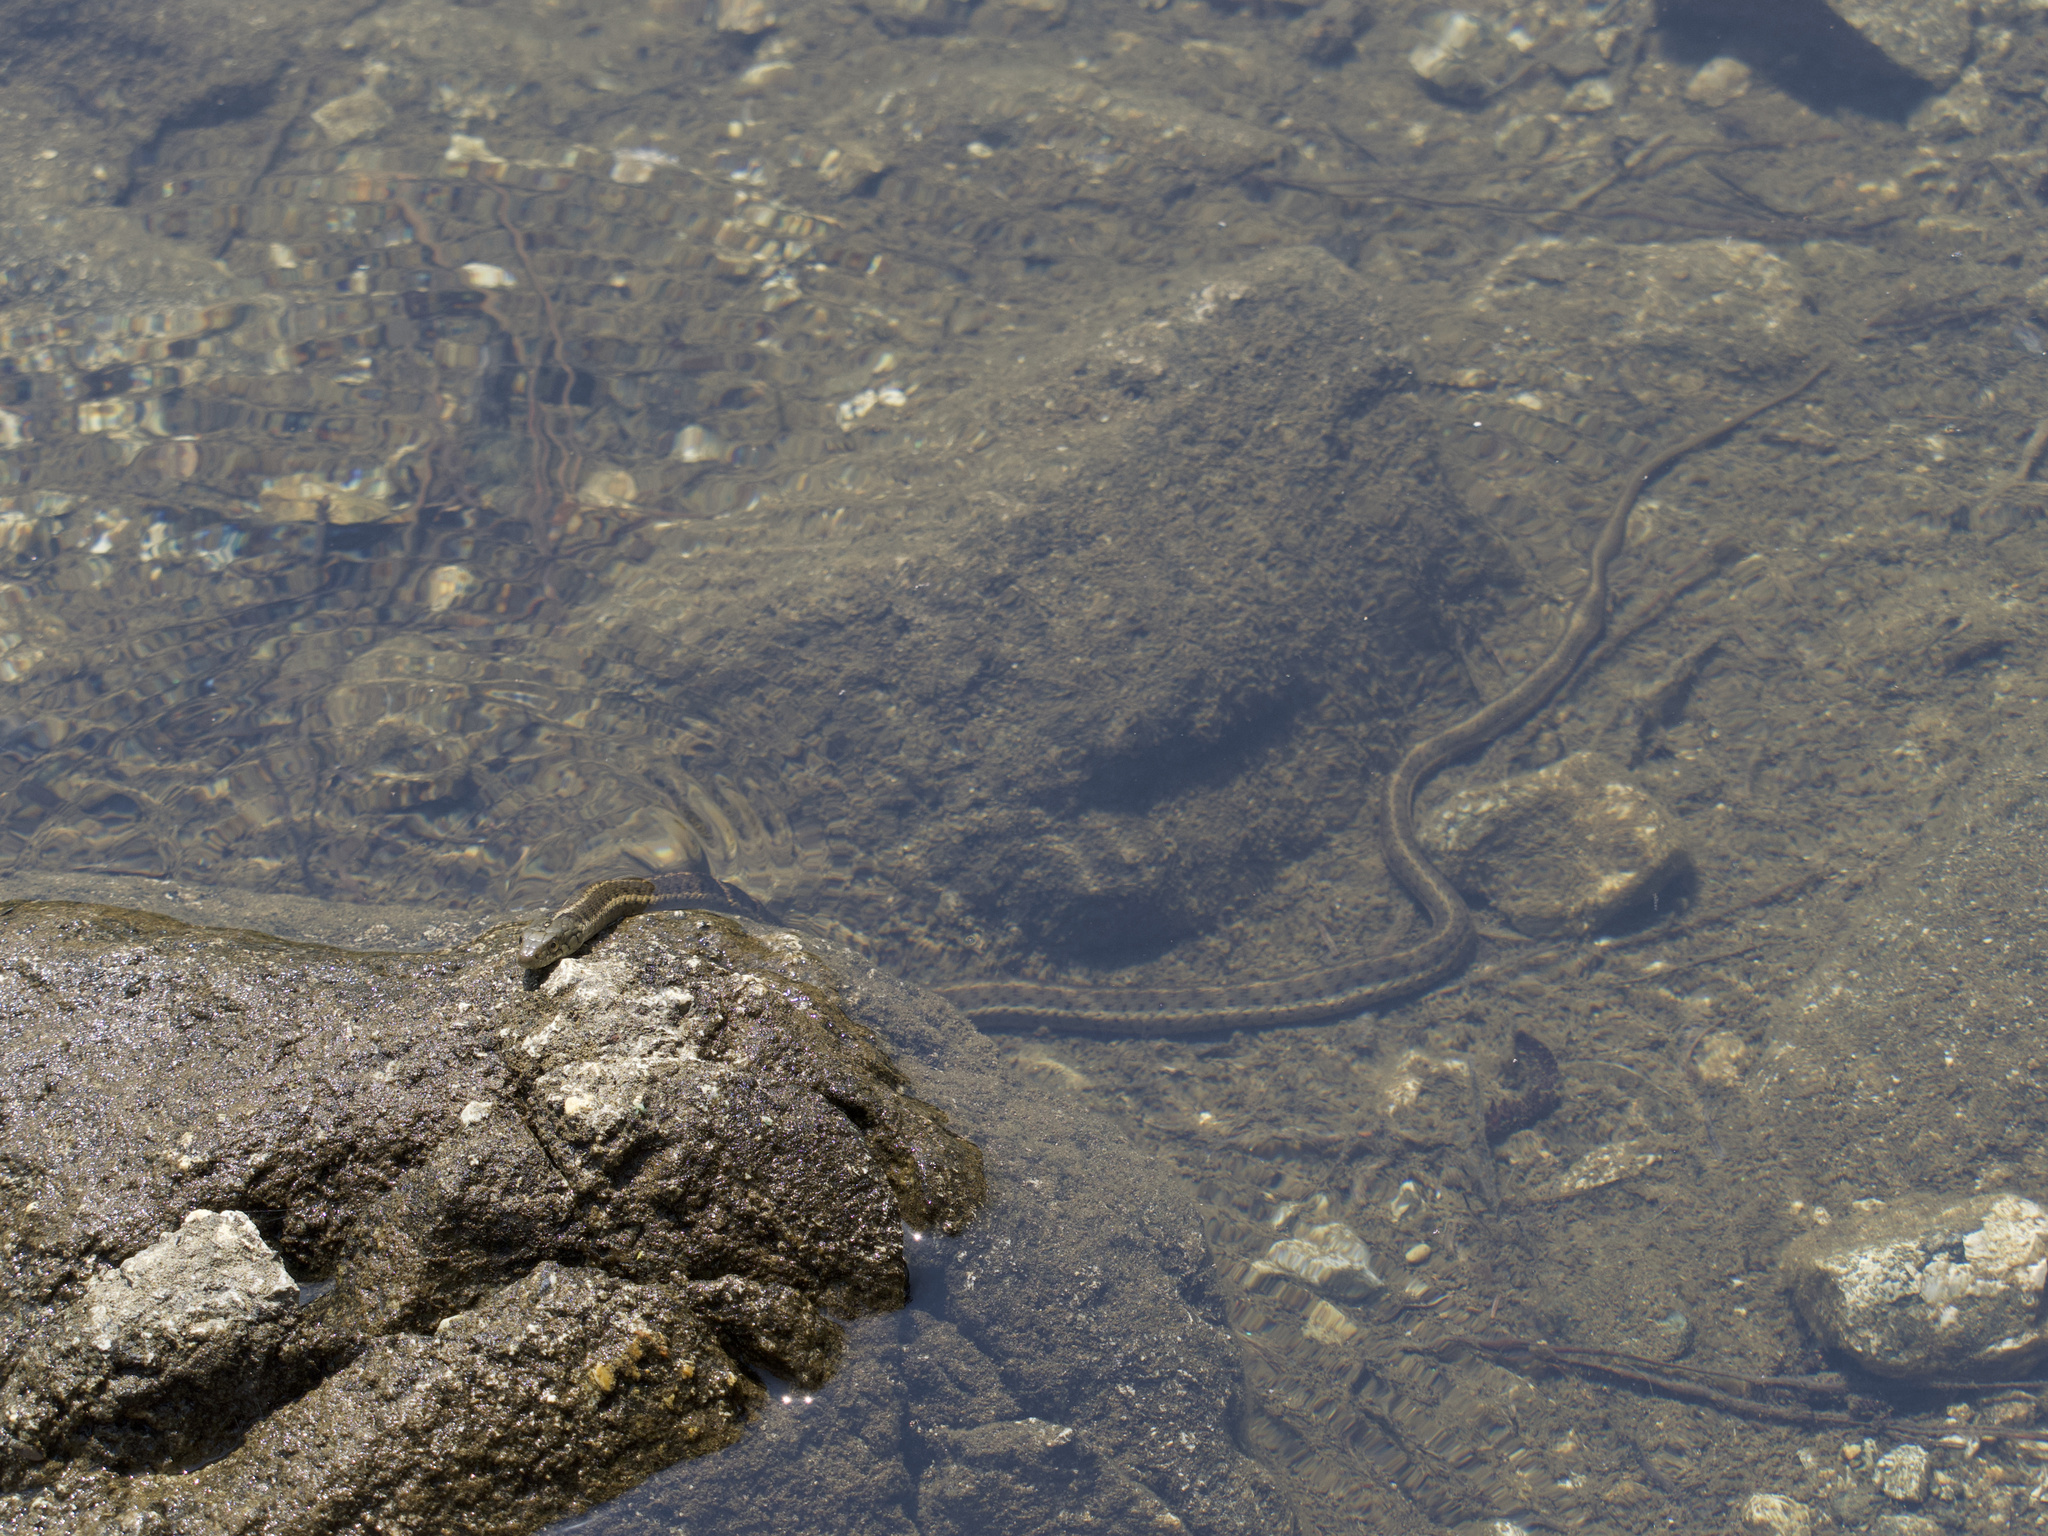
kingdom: Animalia
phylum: Chordata
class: Squamata
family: Colubridae
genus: Thamnophis
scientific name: Thamnophis atratus
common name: Pacific coast aquatic garter snake
